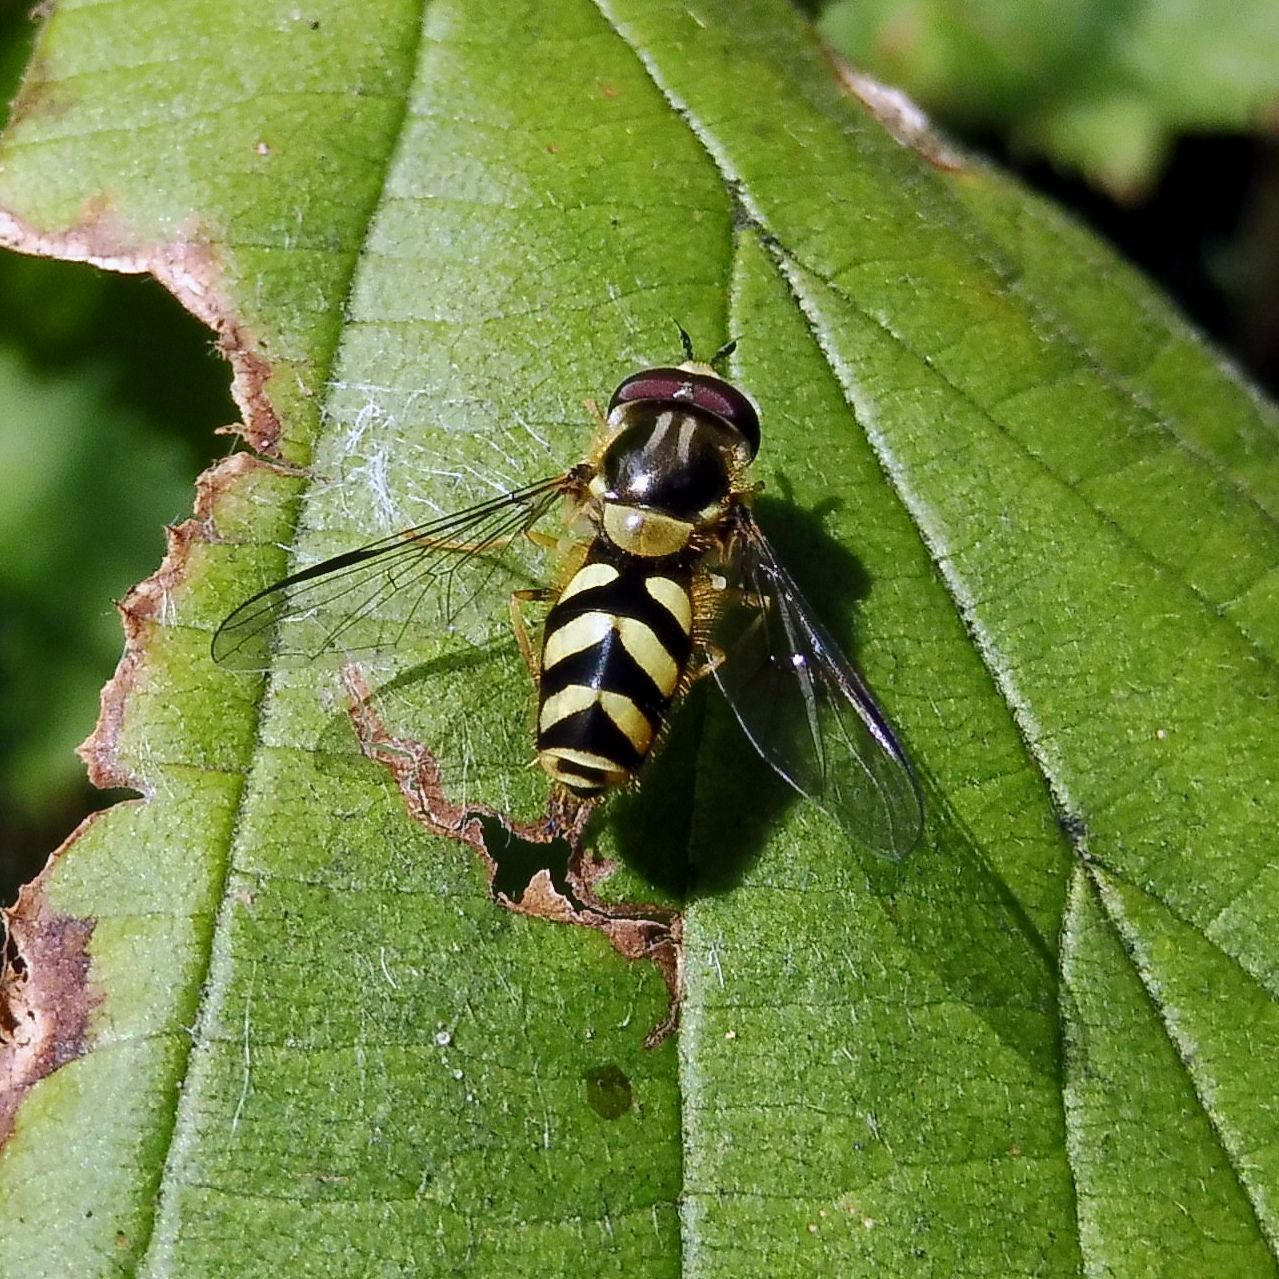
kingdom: Animalia
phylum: Arthropoda
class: Insecta
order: Diptera
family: Syrphidae
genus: Dasysyrphus
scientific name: Dasysyrphus albostriatus
